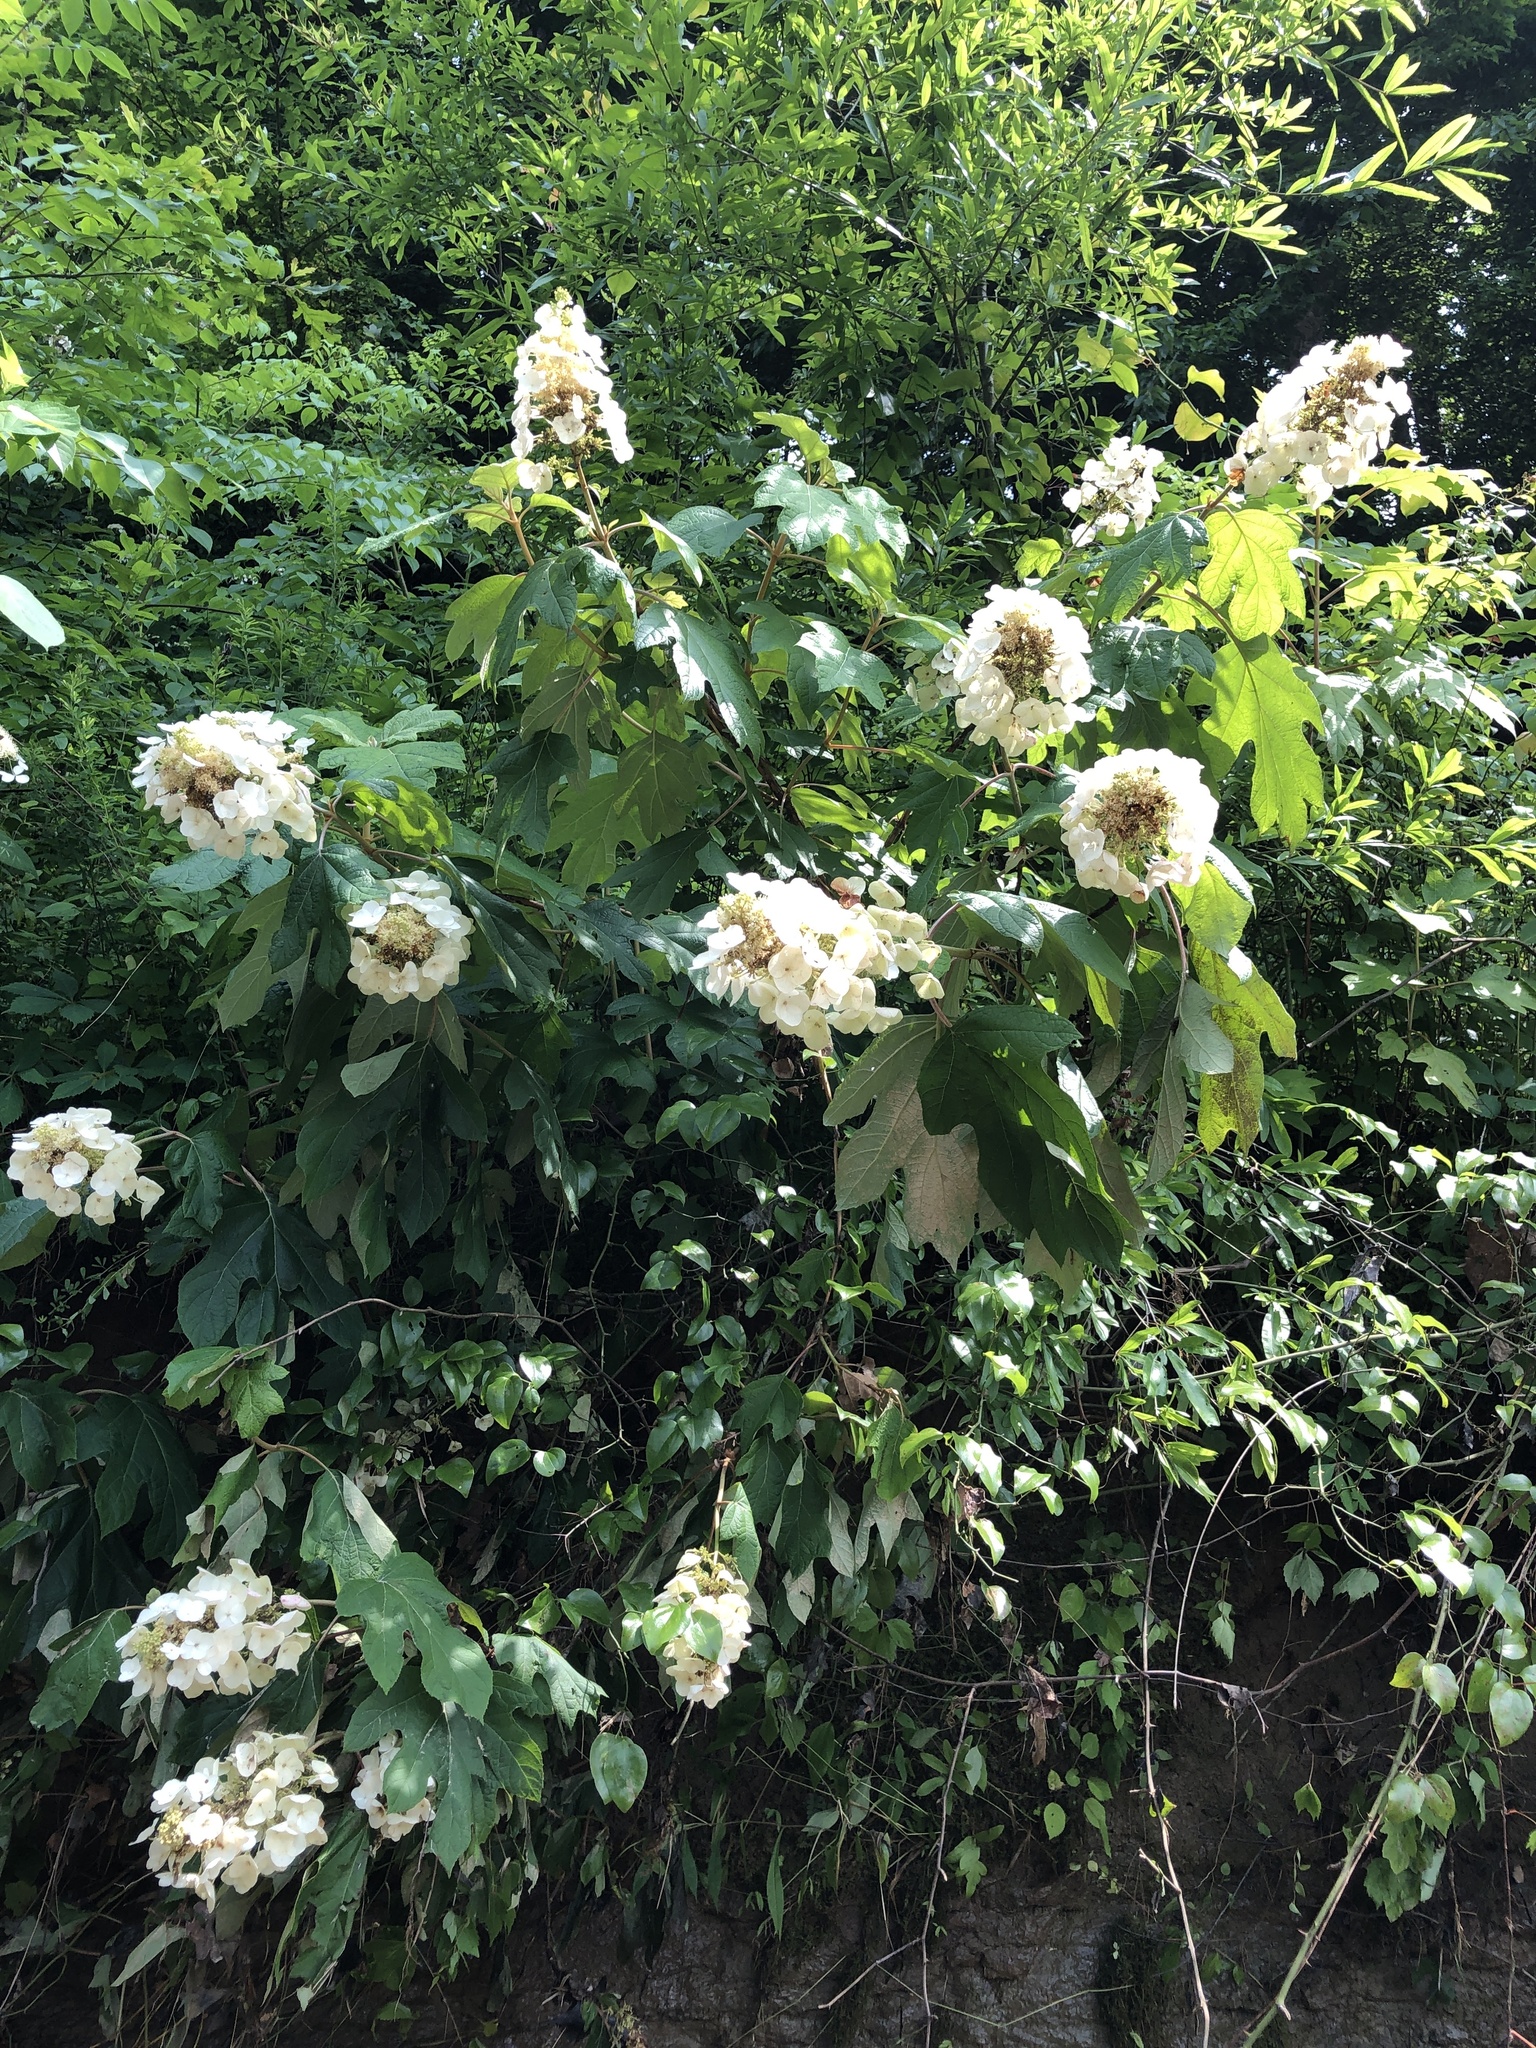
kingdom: Plantae
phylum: Tracheophyta
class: Magnoliopsida
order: Cornales
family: Hydrangeaceae
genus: Hydrangea
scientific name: Hydrangea quercifolia
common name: Oak-leaf hydrangea
